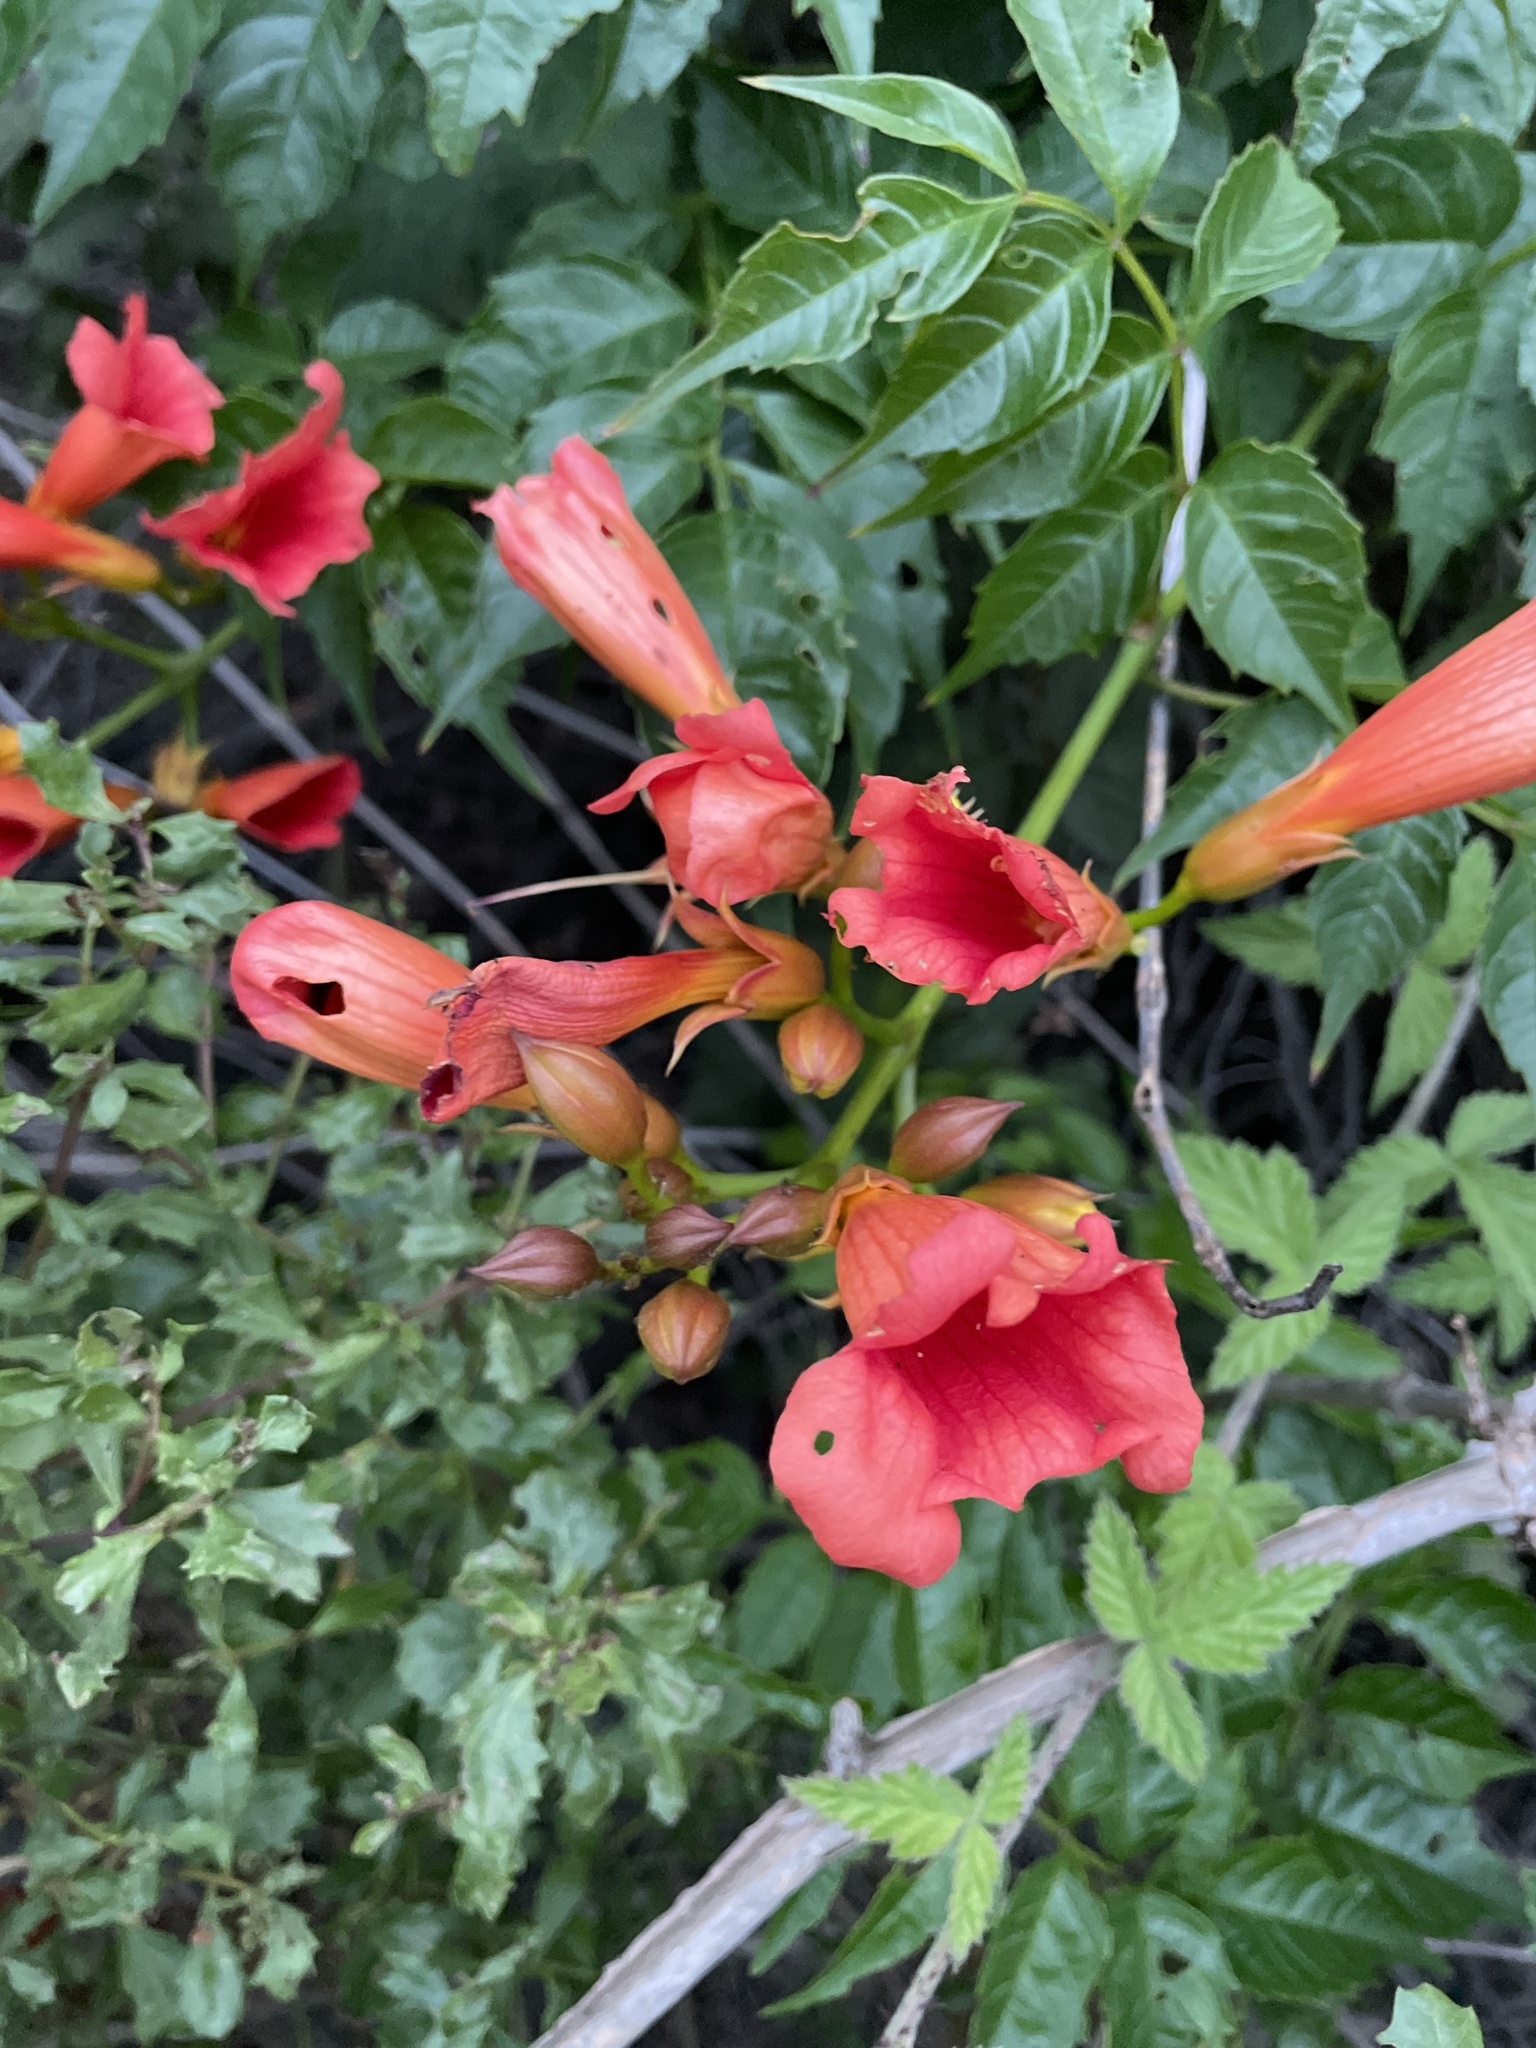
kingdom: Plantae
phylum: Tracheophyta
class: Magnoliopsida
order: Lamiales
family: Bignoniaceae
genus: Campsis
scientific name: Campsis radicans
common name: Trumpet-creeper
